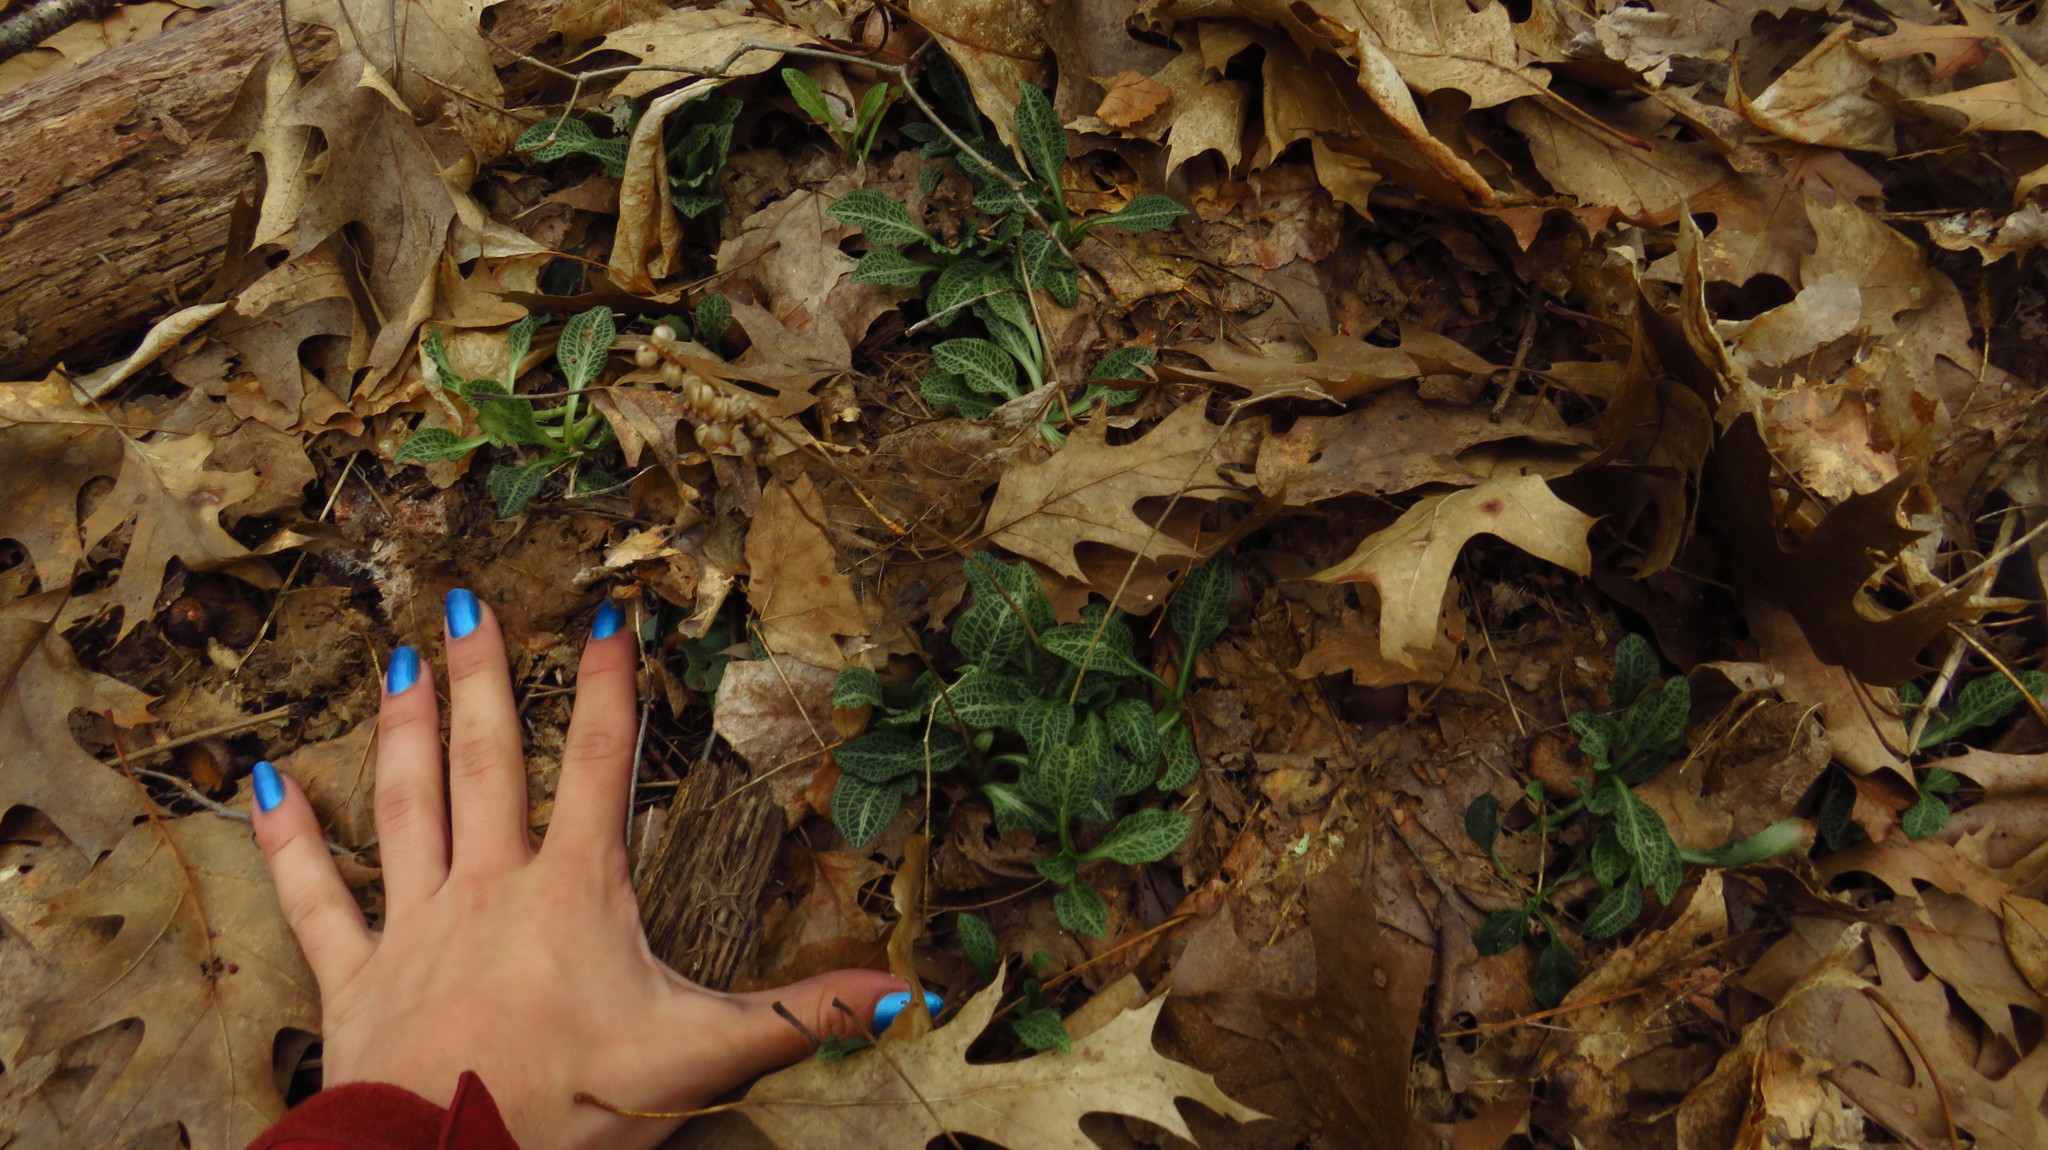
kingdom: Plantae
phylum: Tracheophyta
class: Liliopsida
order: Asparagales
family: Orchidaceae
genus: Goodyera
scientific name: Goodyera pubescens
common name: Downy rattlesnake-plantain
